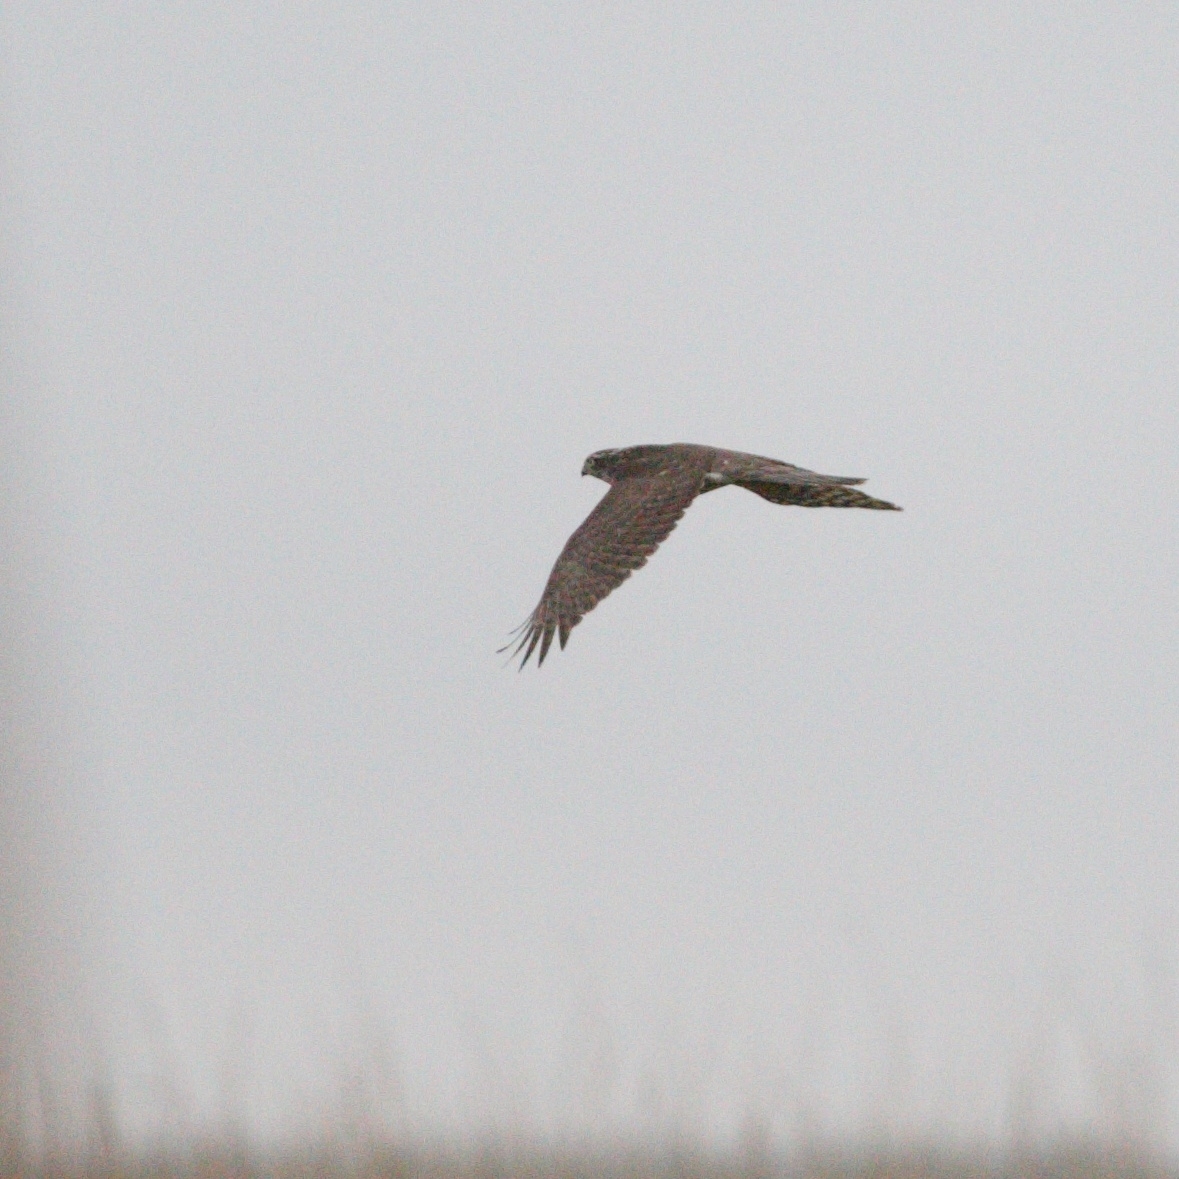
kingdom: Animalia
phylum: Chordata
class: Aves
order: Accipitriformes
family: Accipitridae
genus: Accipiter
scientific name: Accipiter nisus
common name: Eurasian sparrowhawk
